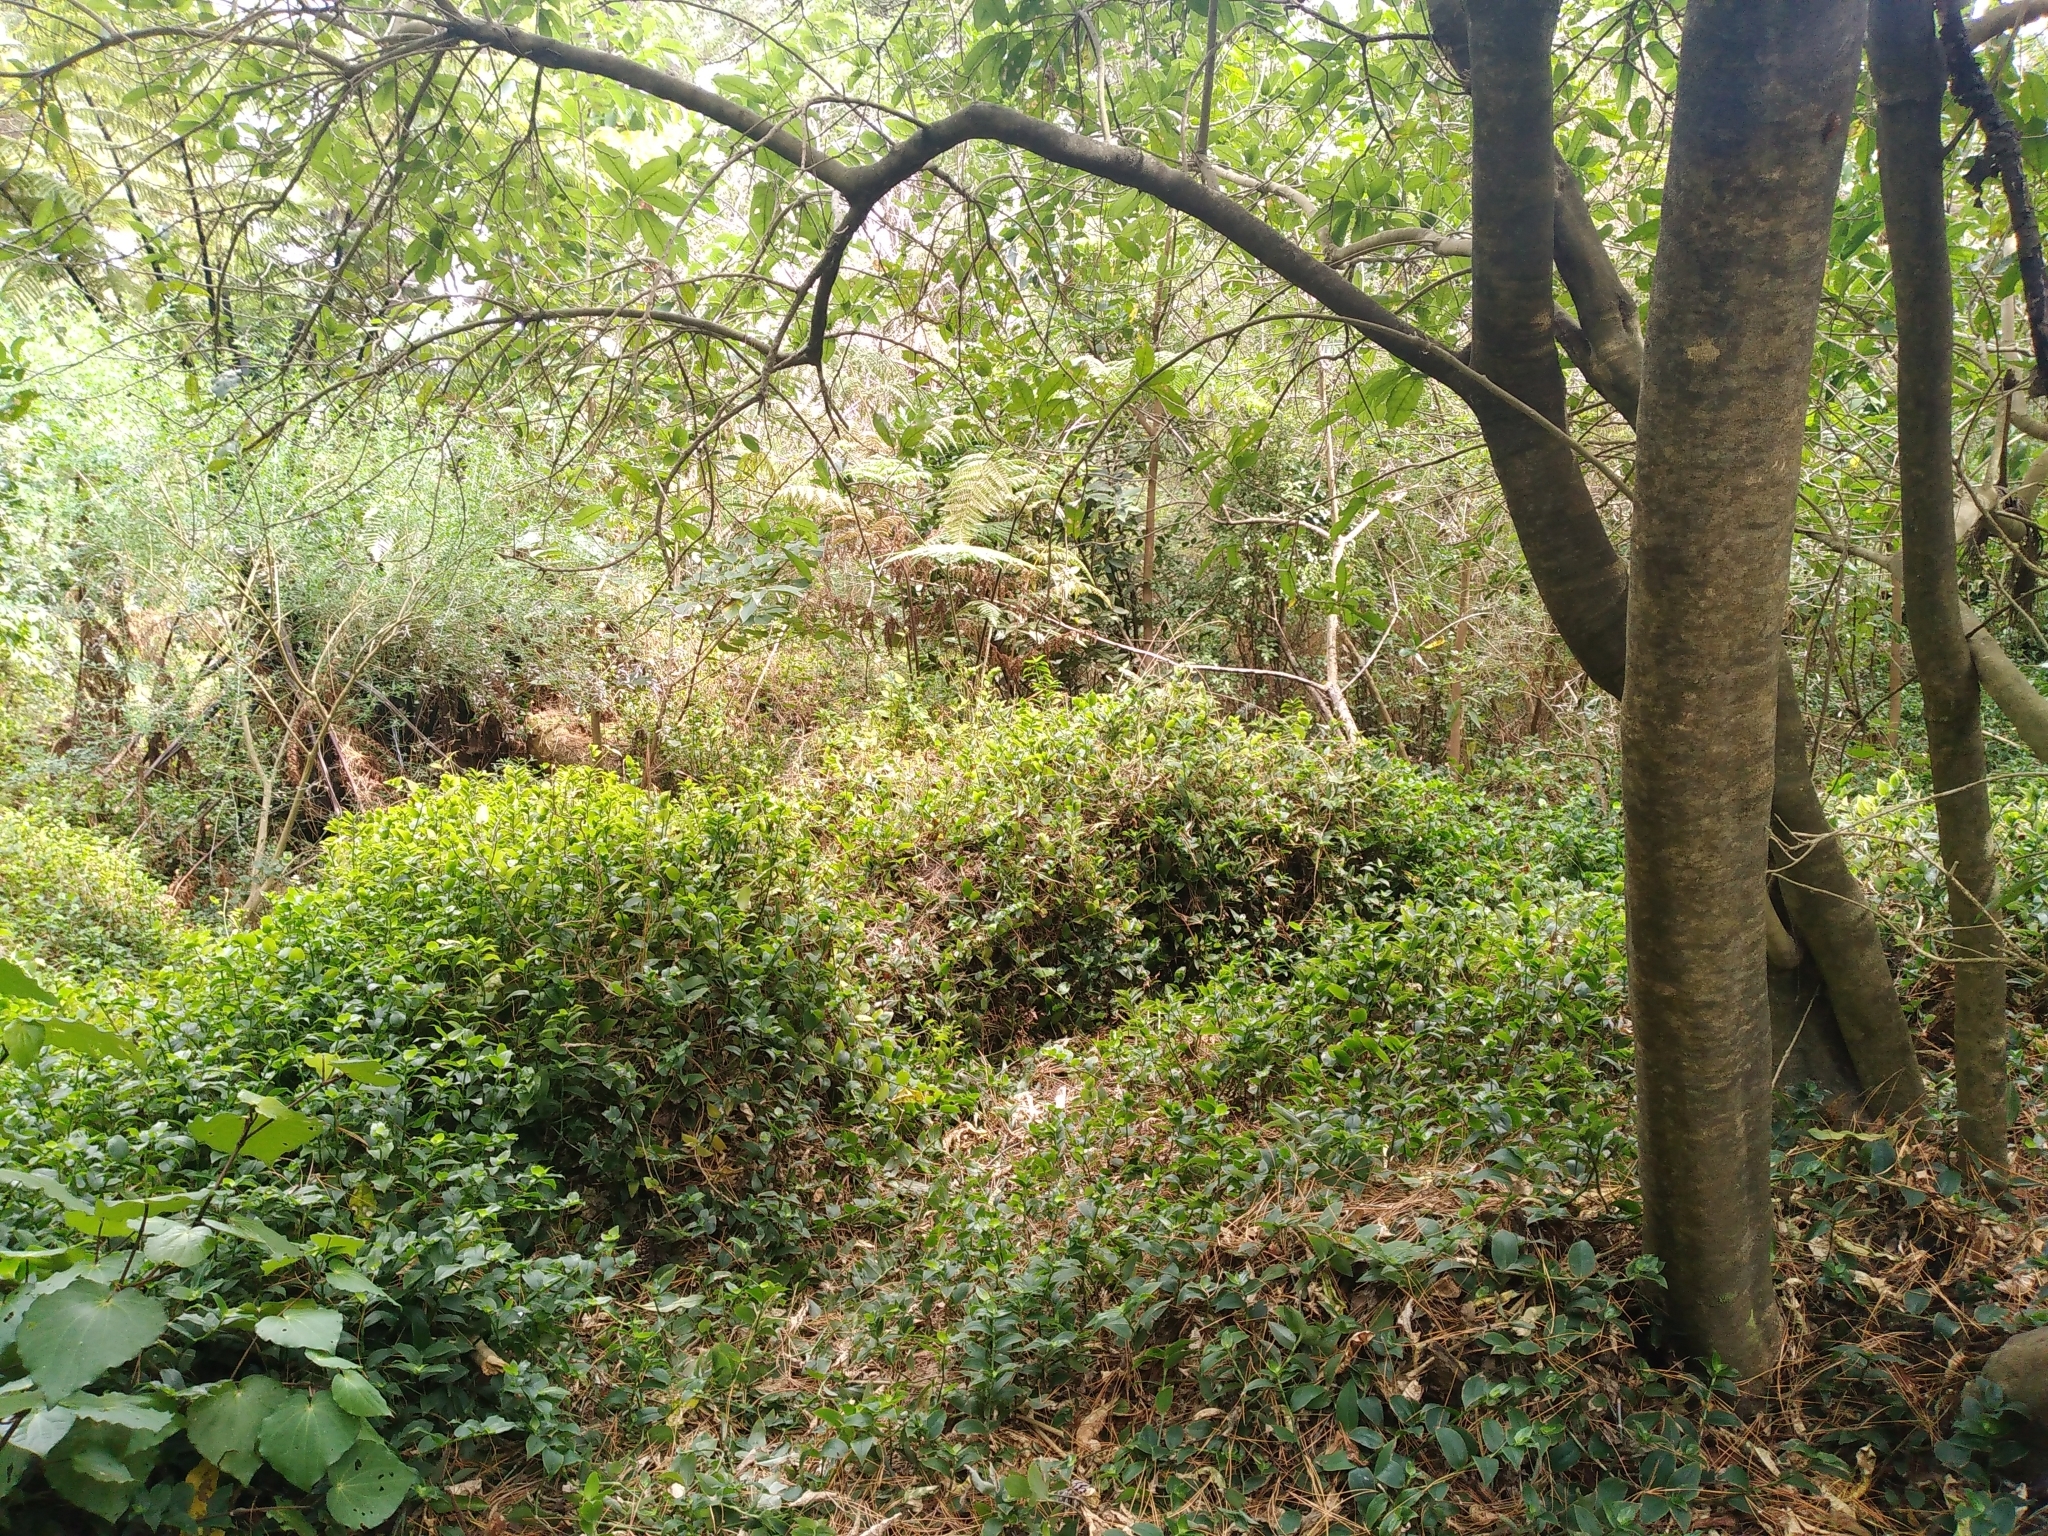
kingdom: Plantae
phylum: Tracheophyta
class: Polypodiopsida
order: Polypodiales
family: Dennstaedtiaceae
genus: Hypolepis
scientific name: Hypolepis dicksonioides
